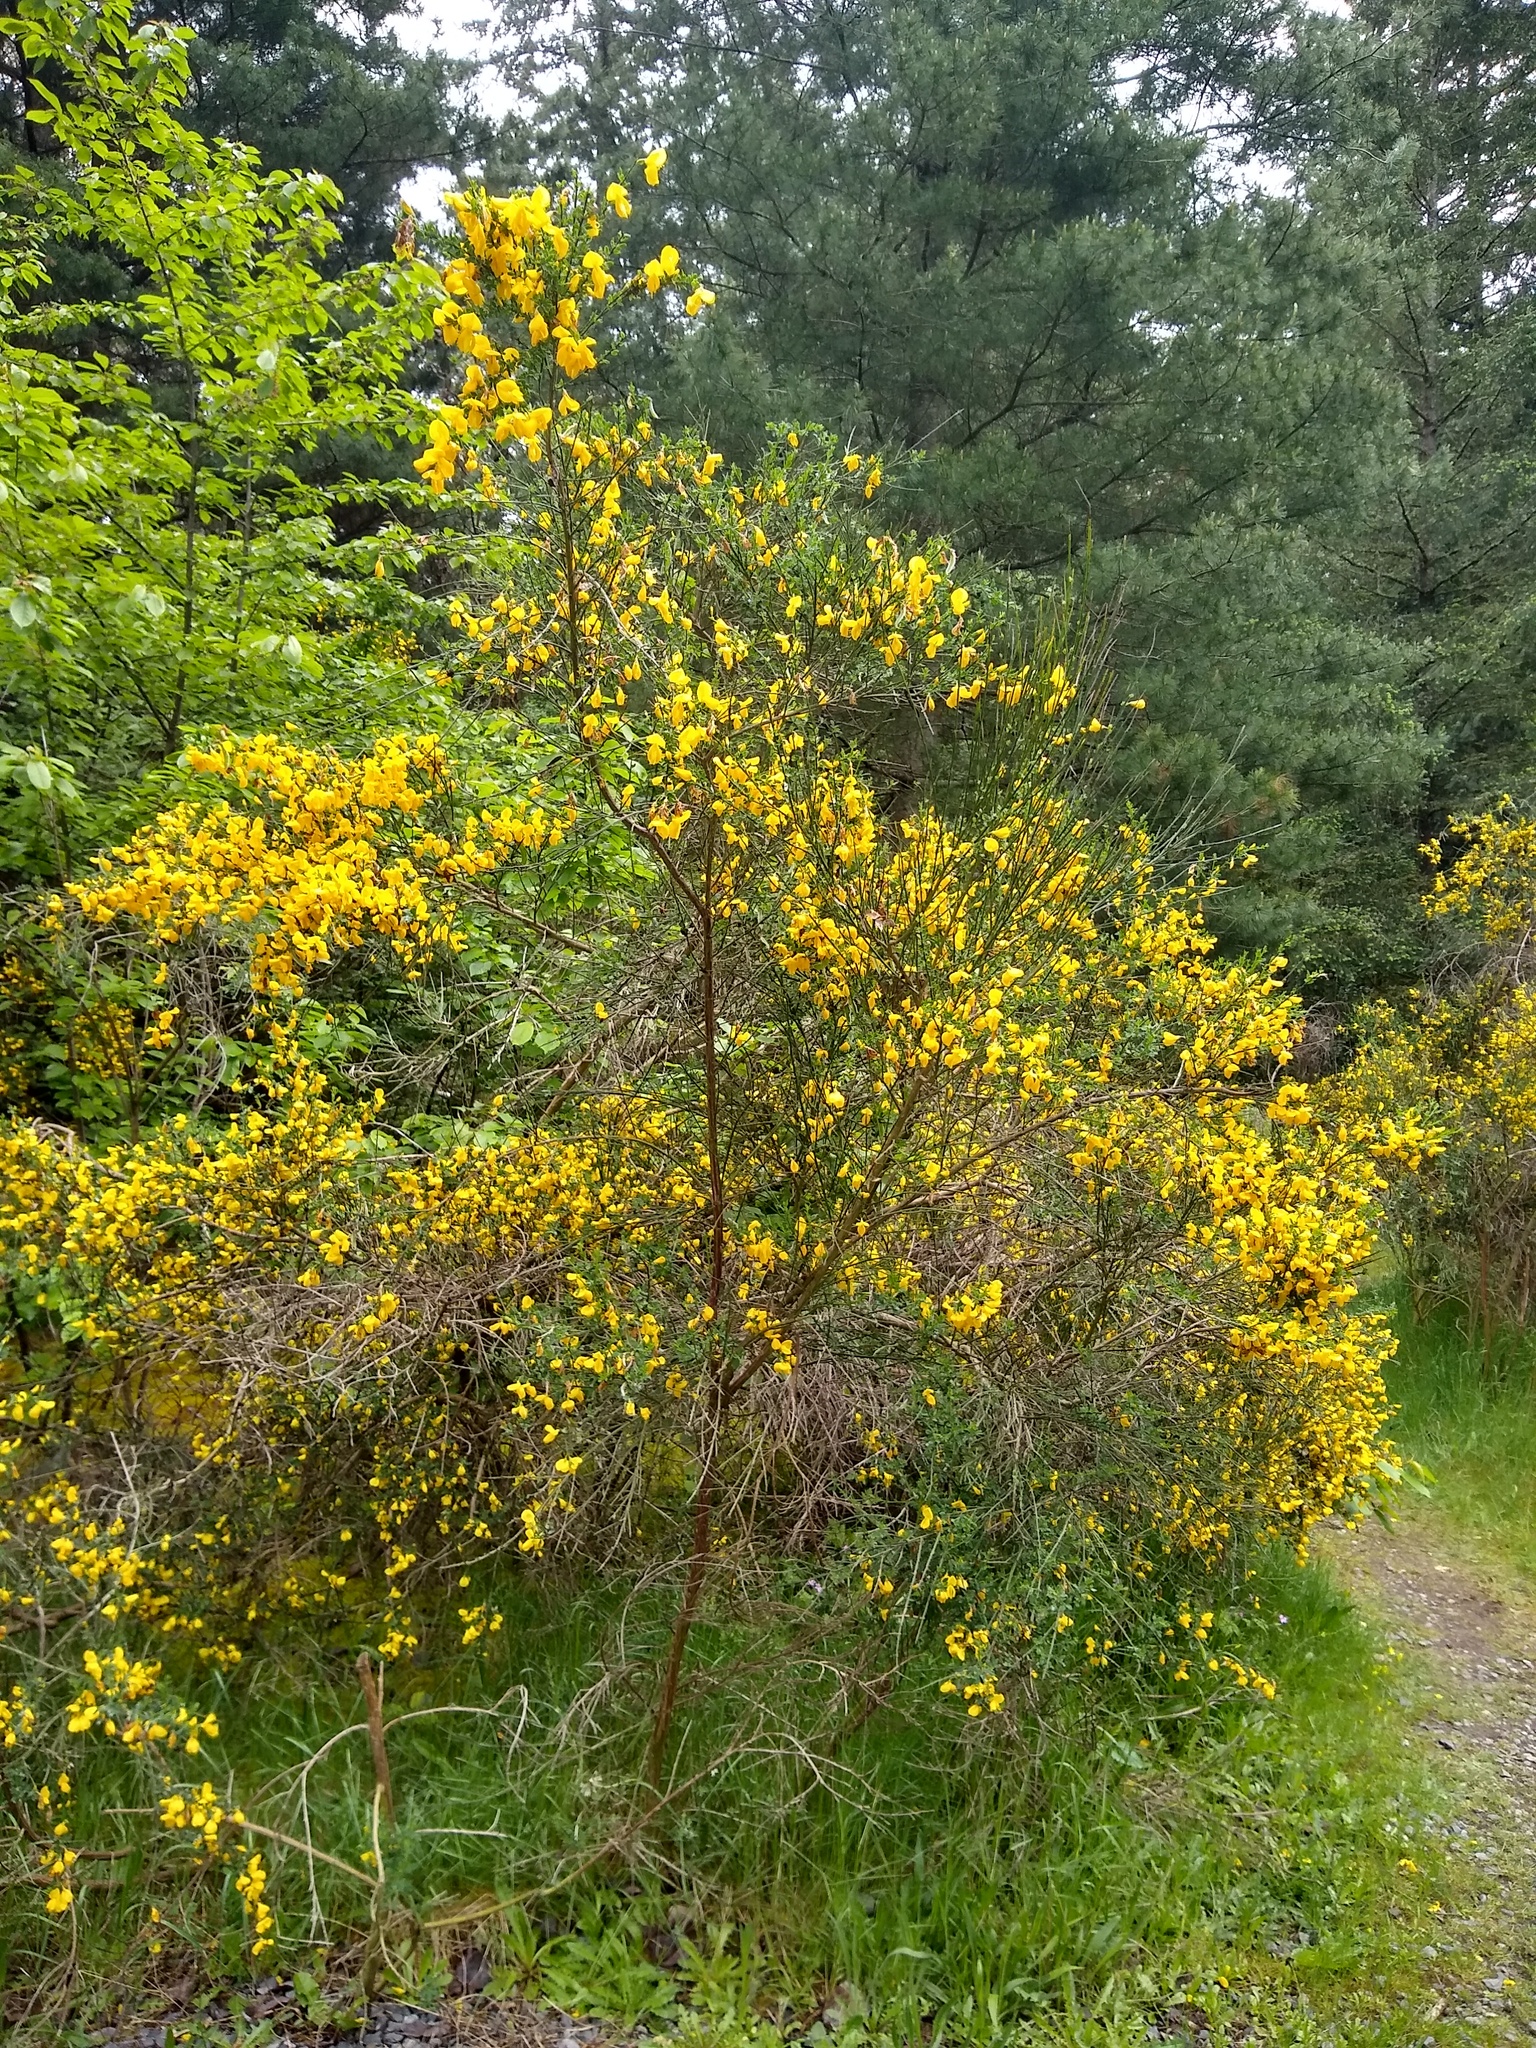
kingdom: Plantae
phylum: Tracheophyta
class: Magnoliopsida
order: Fabales
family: Fabaceae
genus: Cytisus
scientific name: Cytisus scoparius
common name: Scotch broom
